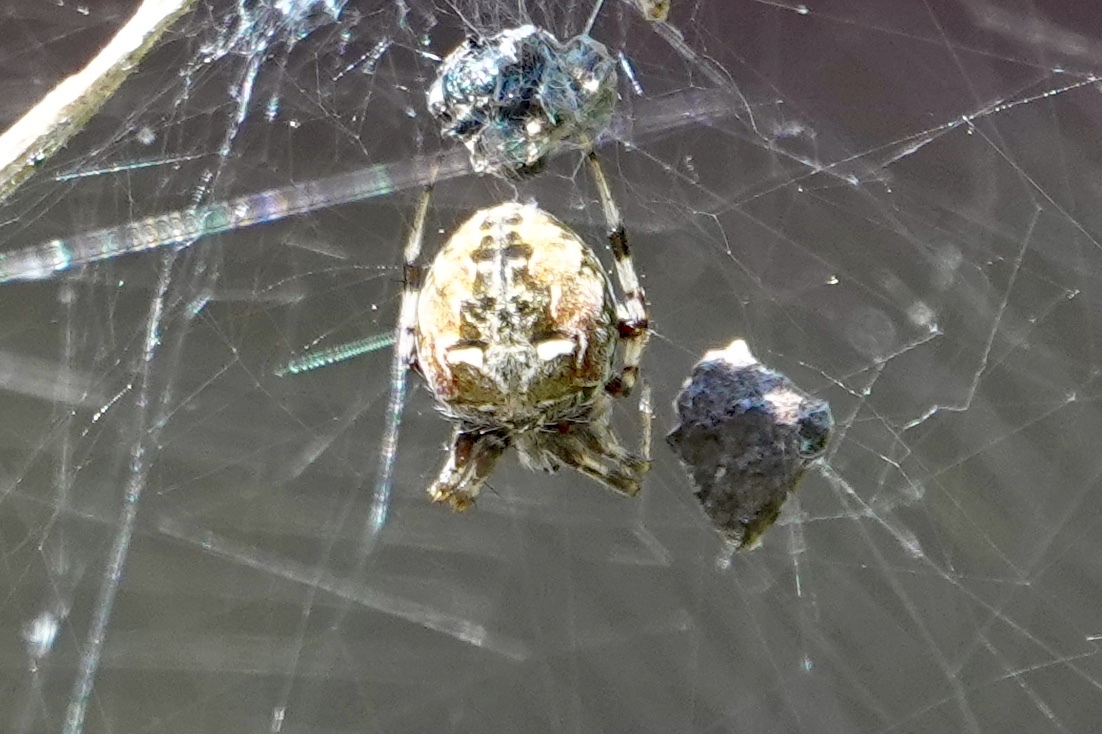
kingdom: Animalia
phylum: Arthropoda
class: Arachnida
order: Araneae
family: Araneidae
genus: Metepeira
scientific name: Metepeira labyrinthea
